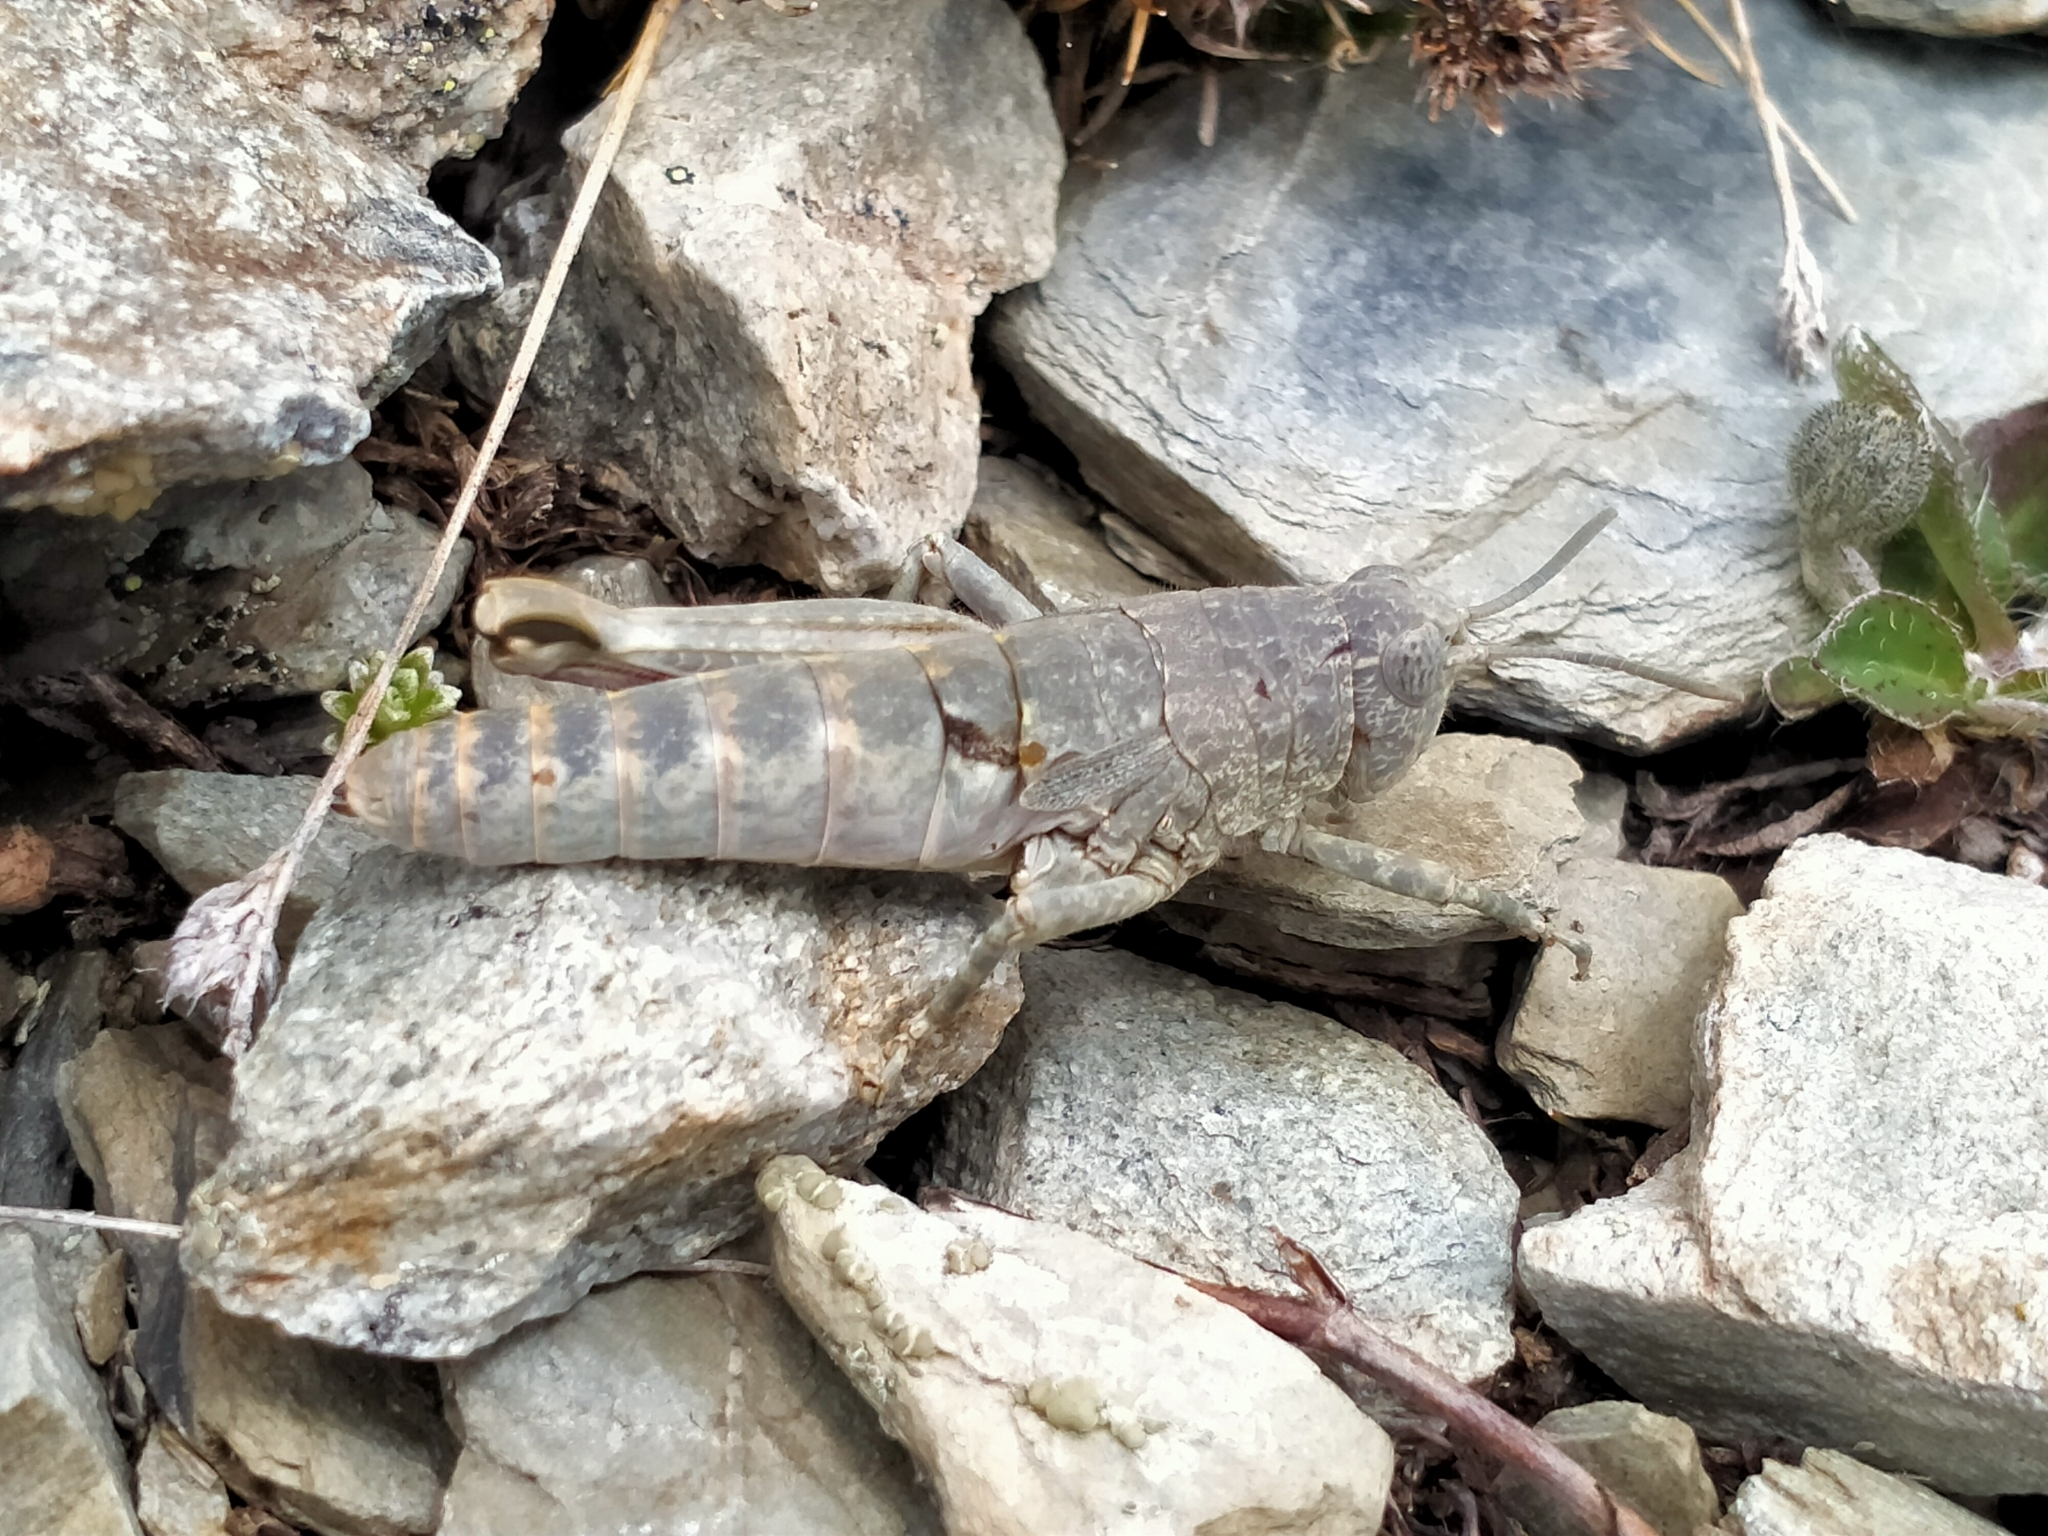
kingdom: Animalia
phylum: Arthropoda
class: Insecta
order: Orthoptera
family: Acrididae
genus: Sigaus
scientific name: Sigaus
